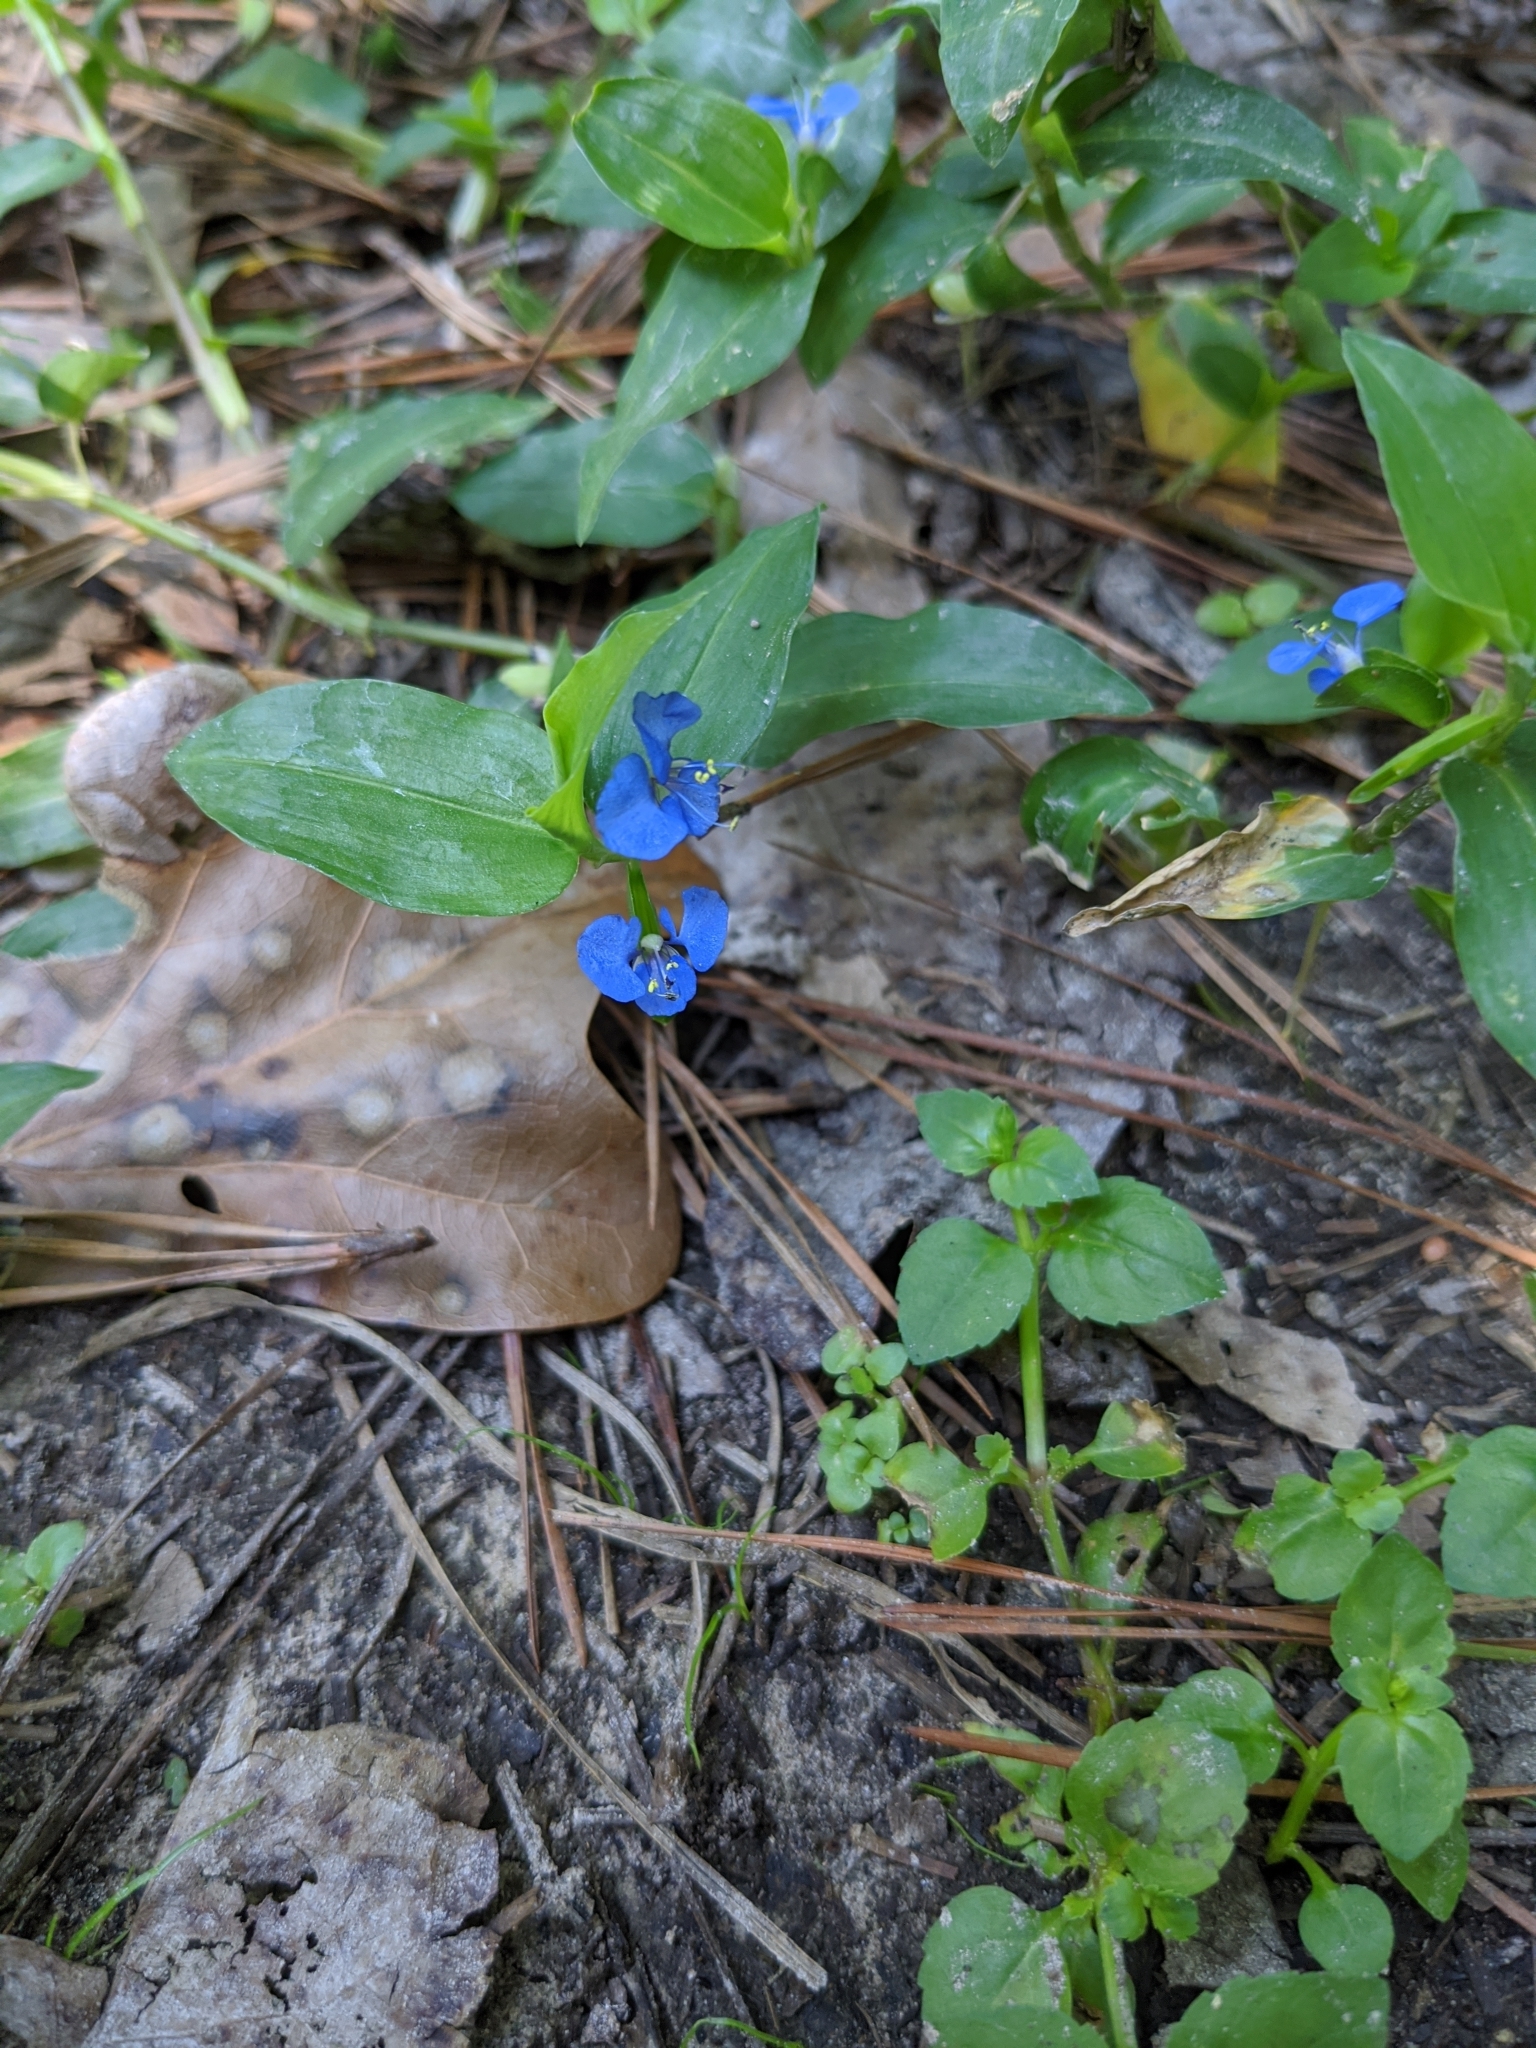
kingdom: Plantae
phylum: Tracheophyta
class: Liliopsida
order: Commelinales
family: Commelinaceae
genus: Commelina
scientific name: Commelina diffusa
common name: Climbing dayflower
